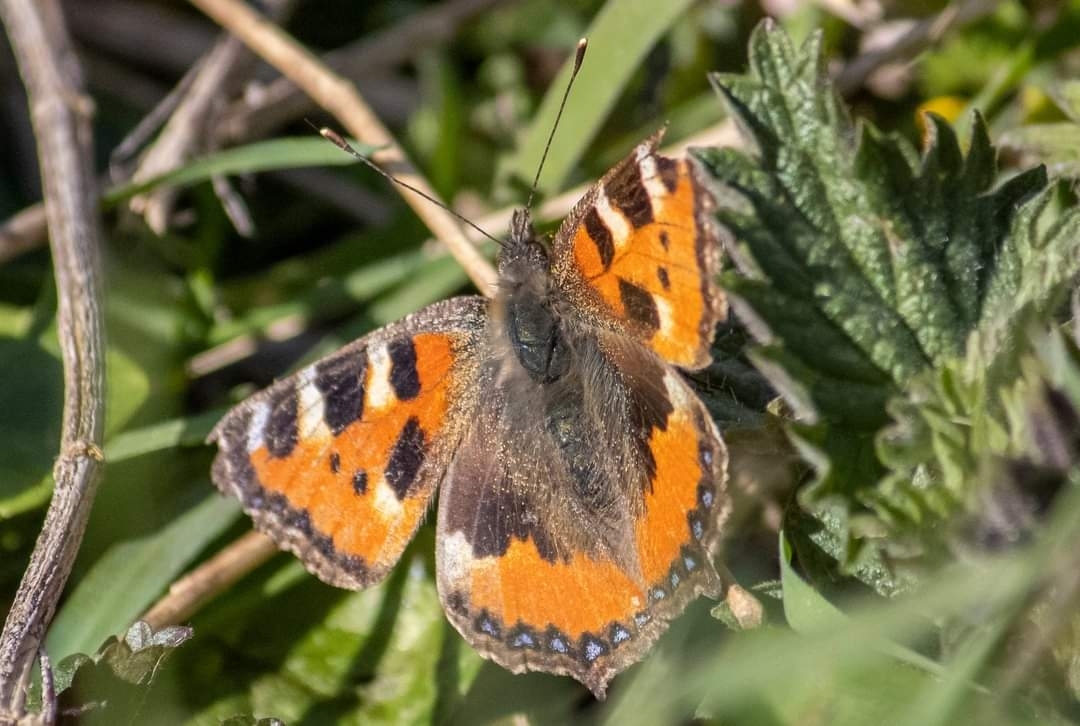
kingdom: Animalia
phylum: Arthropoda
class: Insecta
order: Lepidoptera
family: Nymphalidae
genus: Aglais
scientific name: Aglais urticae
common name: Small tortoiseshell
